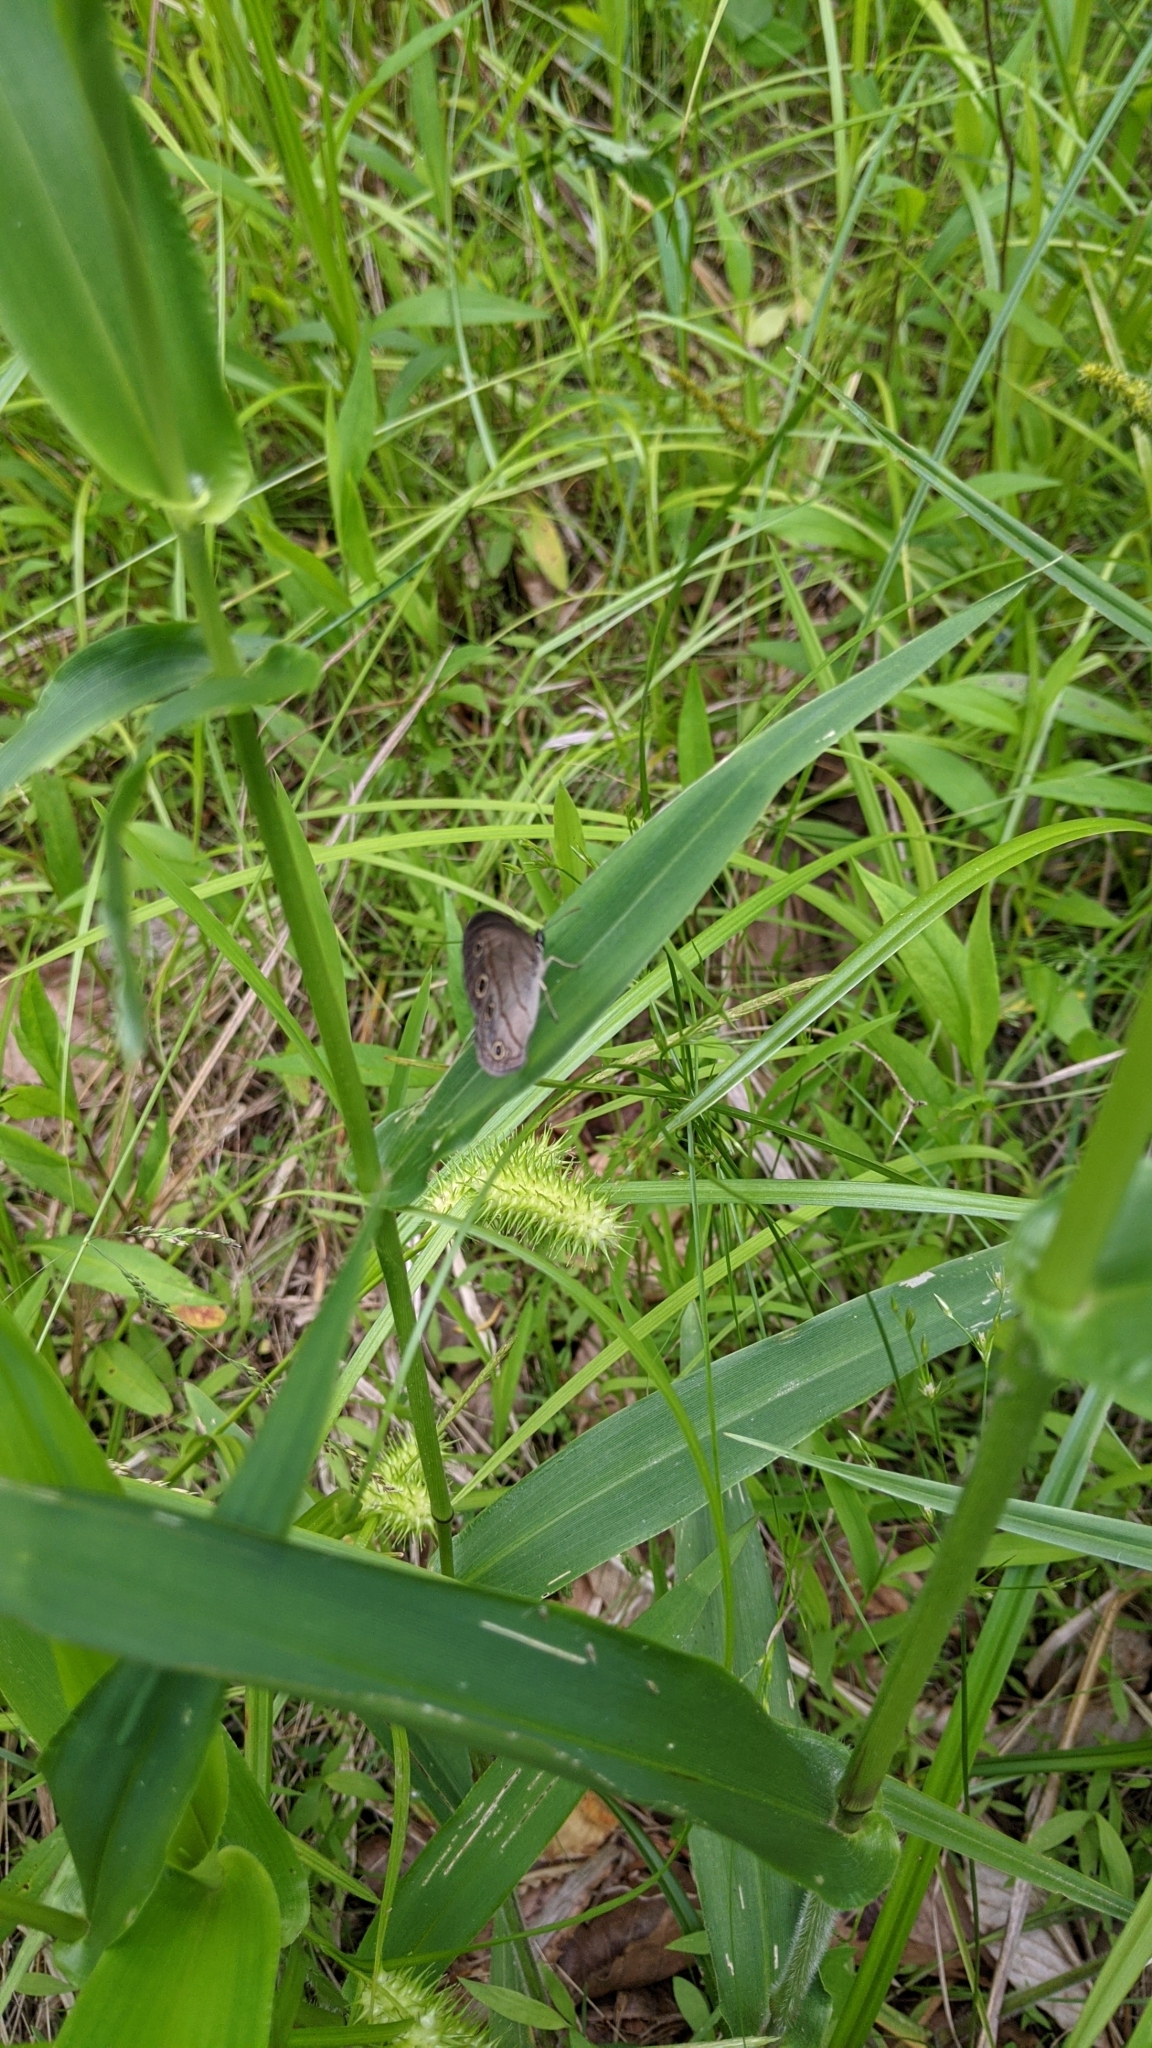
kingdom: Animalia
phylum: Arthropoda
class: Insecta
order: Lepidoptera
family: Nymphalidae
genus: Euptychia
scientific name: Euptychia cymela
